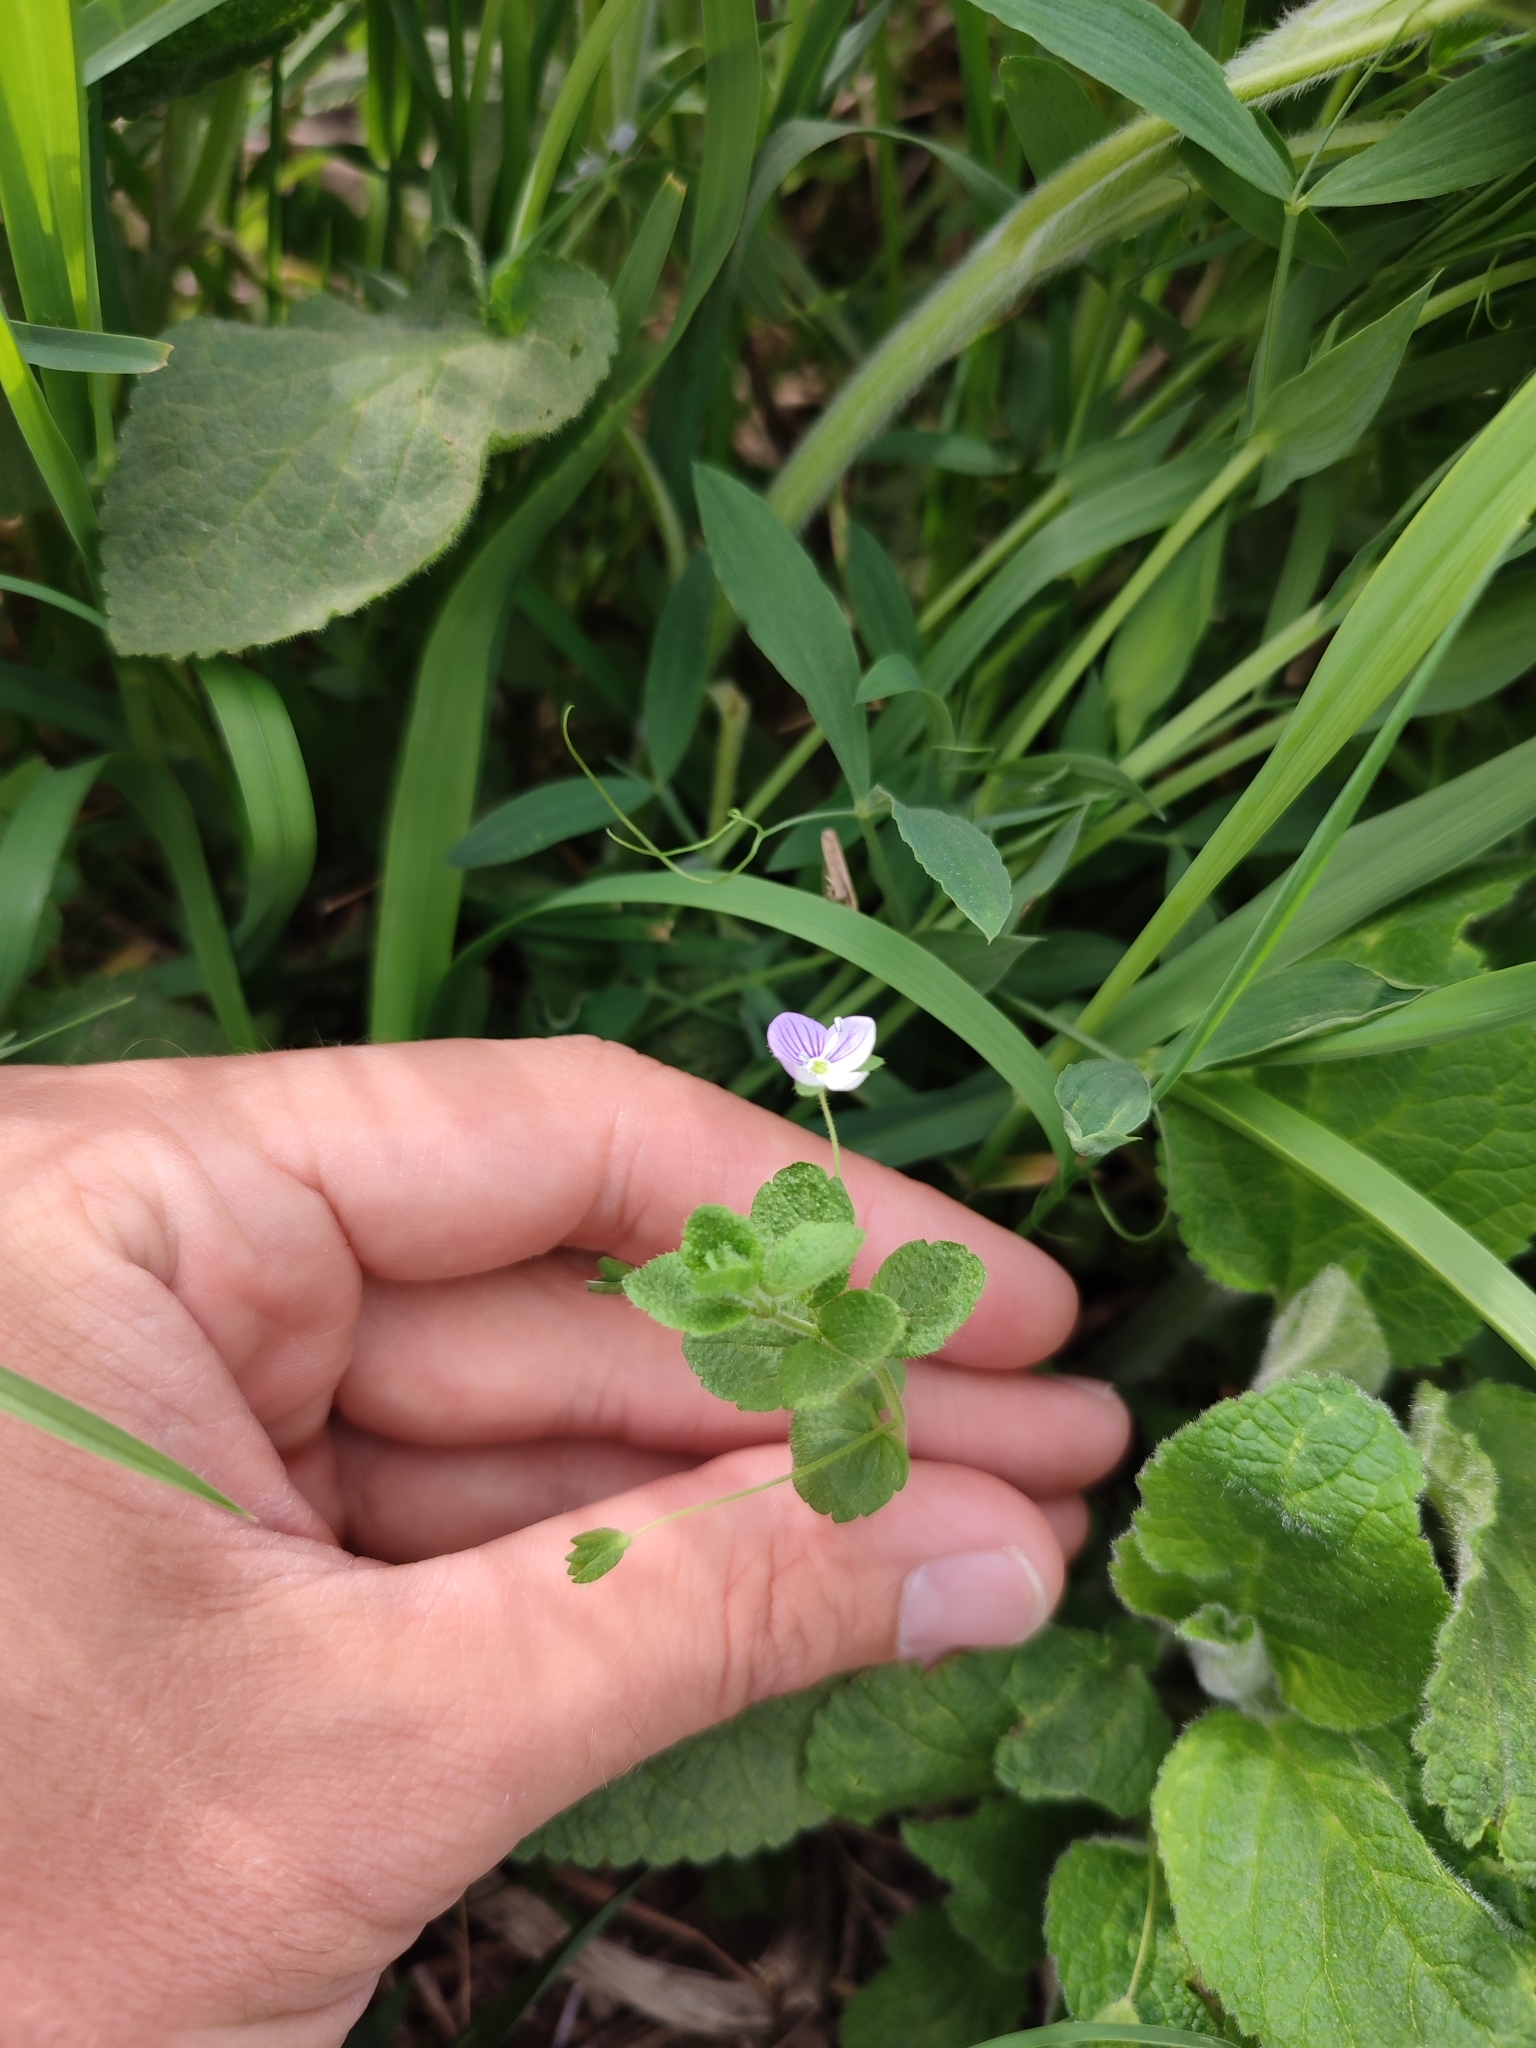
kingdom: Plantae
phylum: Tracheophyta
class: Magnoliopsida
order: Lamiales
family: Plantaginaceae
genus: Veronica
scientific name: Veronica filiformis
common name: Slender speedwell
